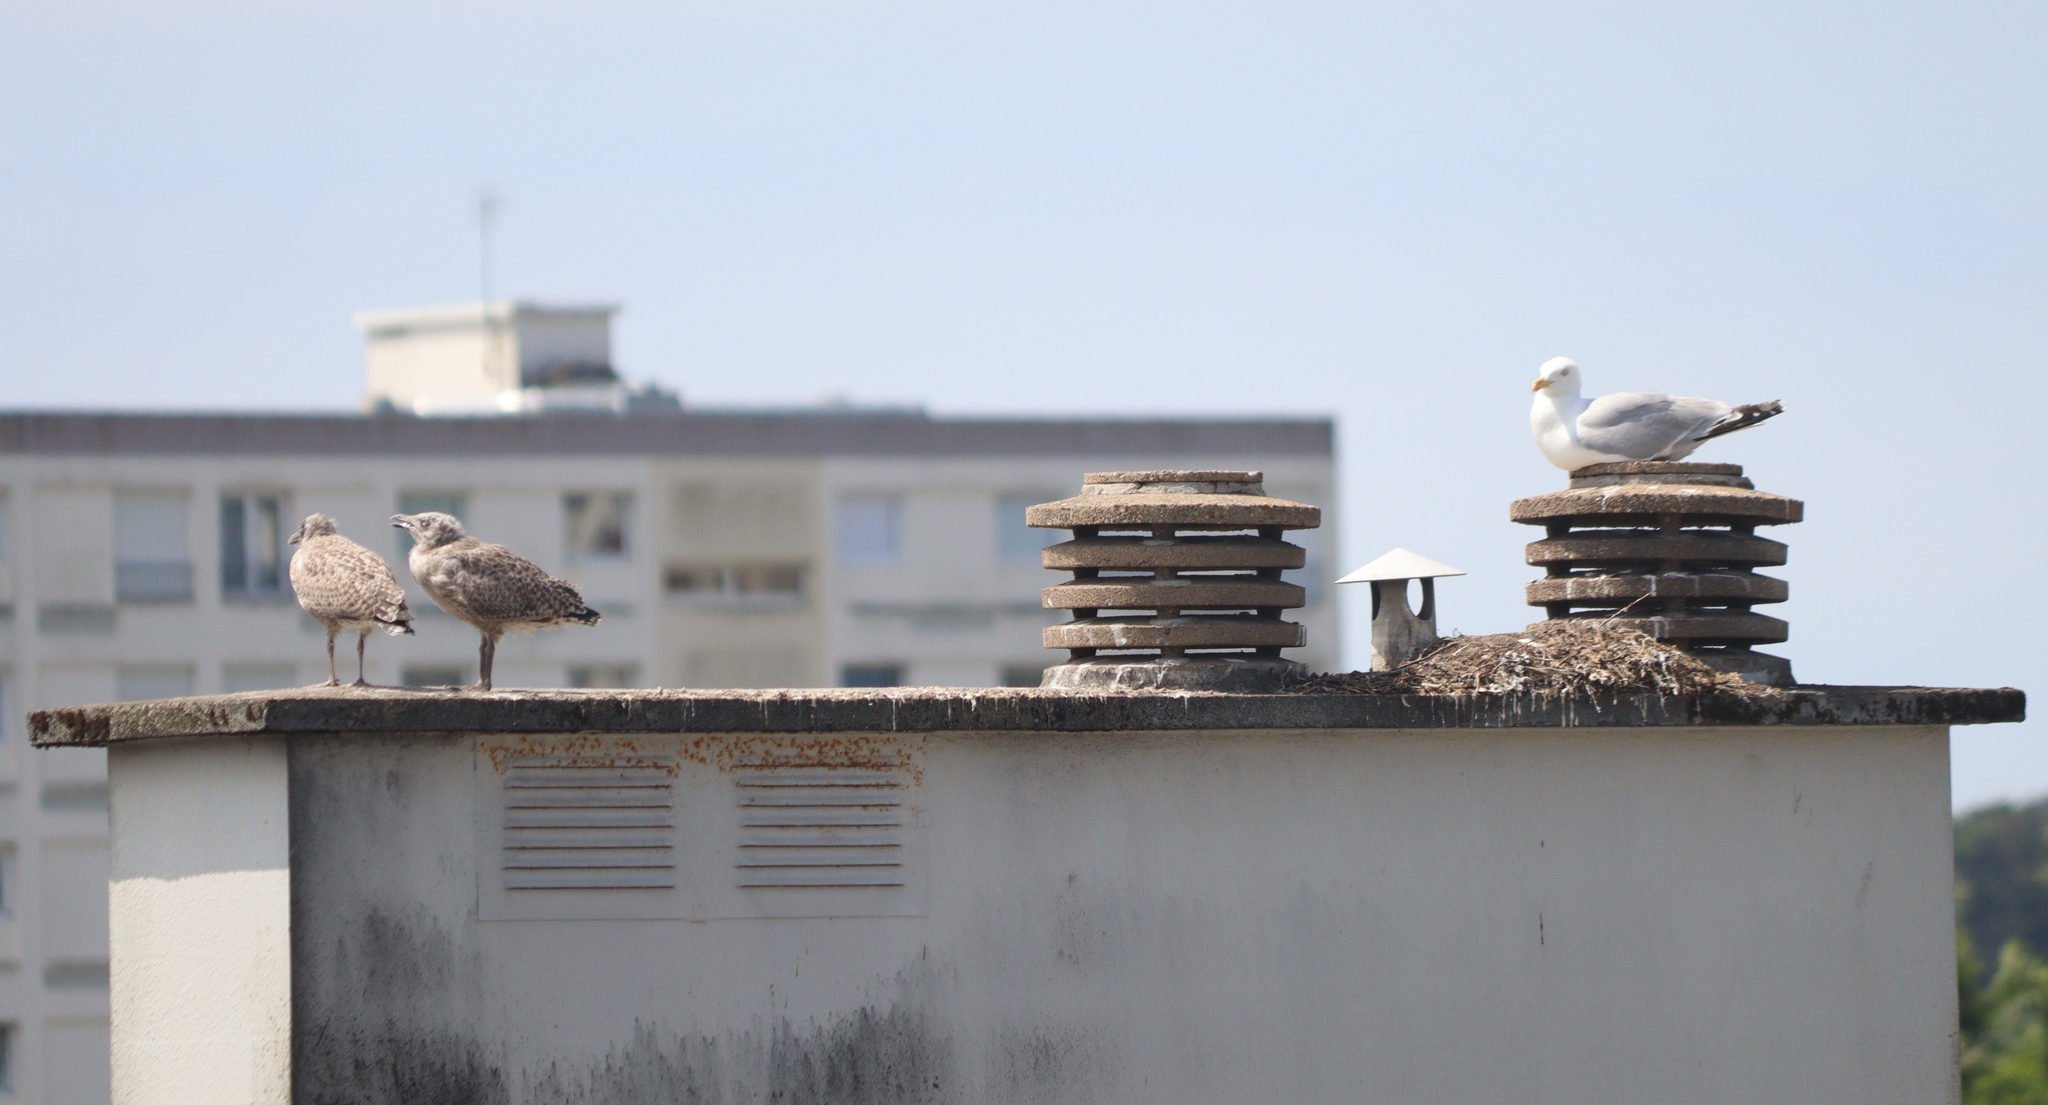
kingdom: Animalia
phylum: Chordata
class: Aves
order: Charadriiformes
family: Laridae
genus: Larus
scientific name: Larus argentatus
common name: Herring gull
